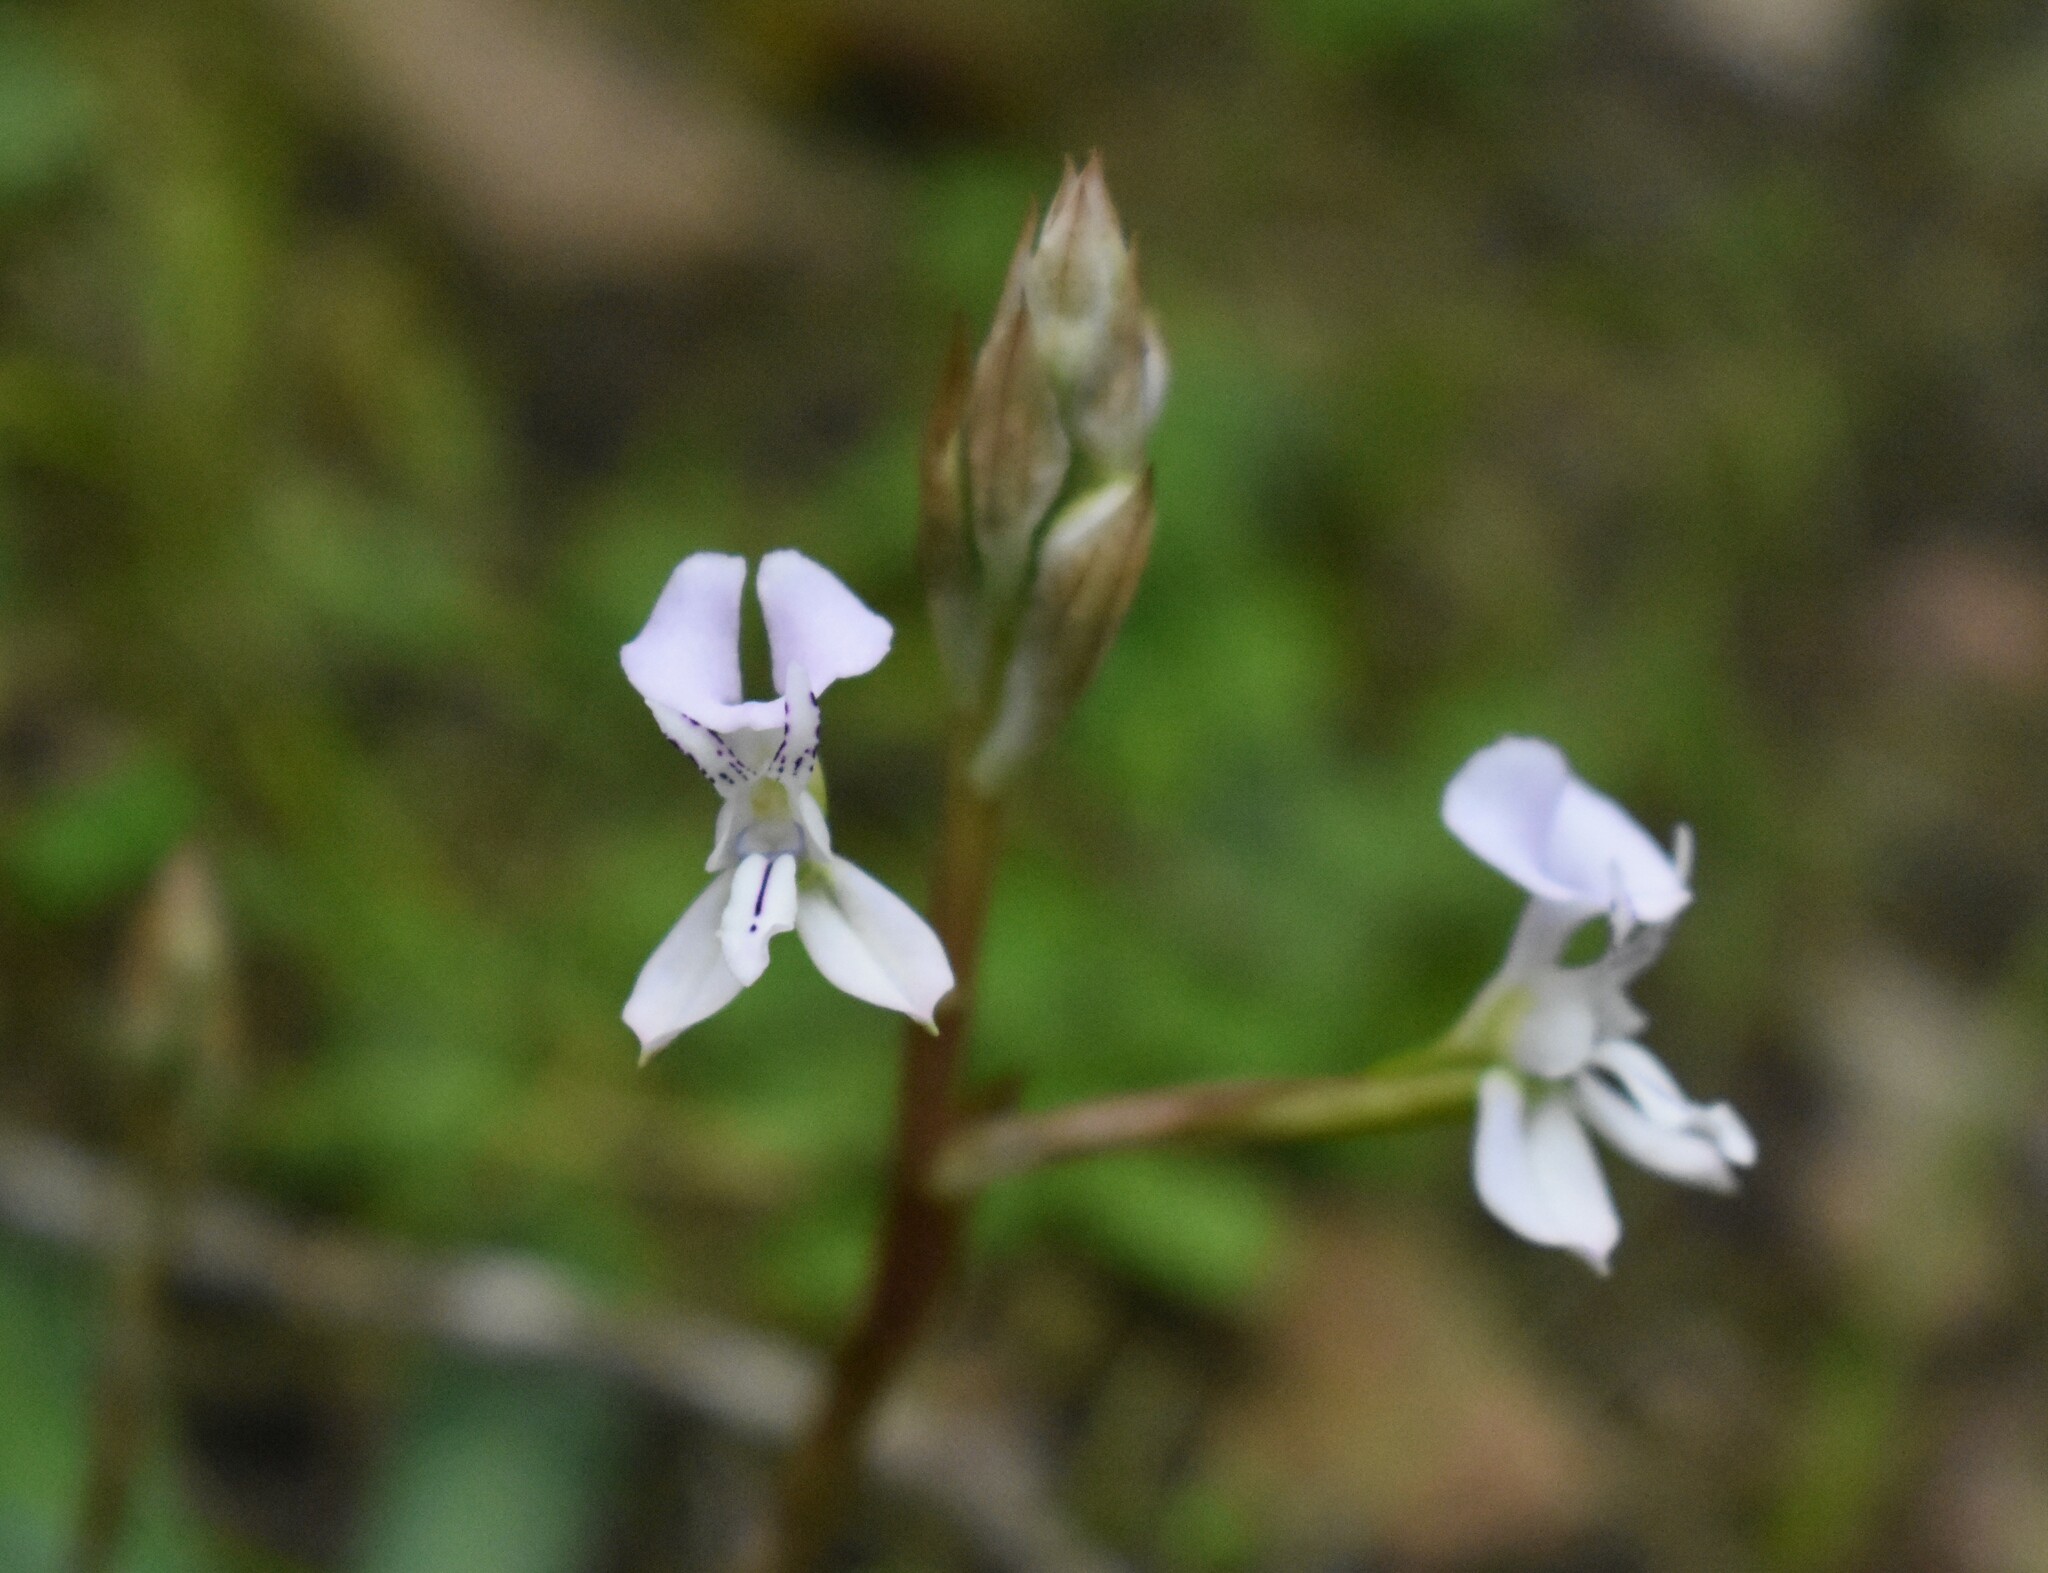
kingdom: Plantae
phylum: Tracheophyta
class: Liliopsida
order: Asparagales
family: Orchidaceae
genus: Disa
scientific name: Disa sagittalis
